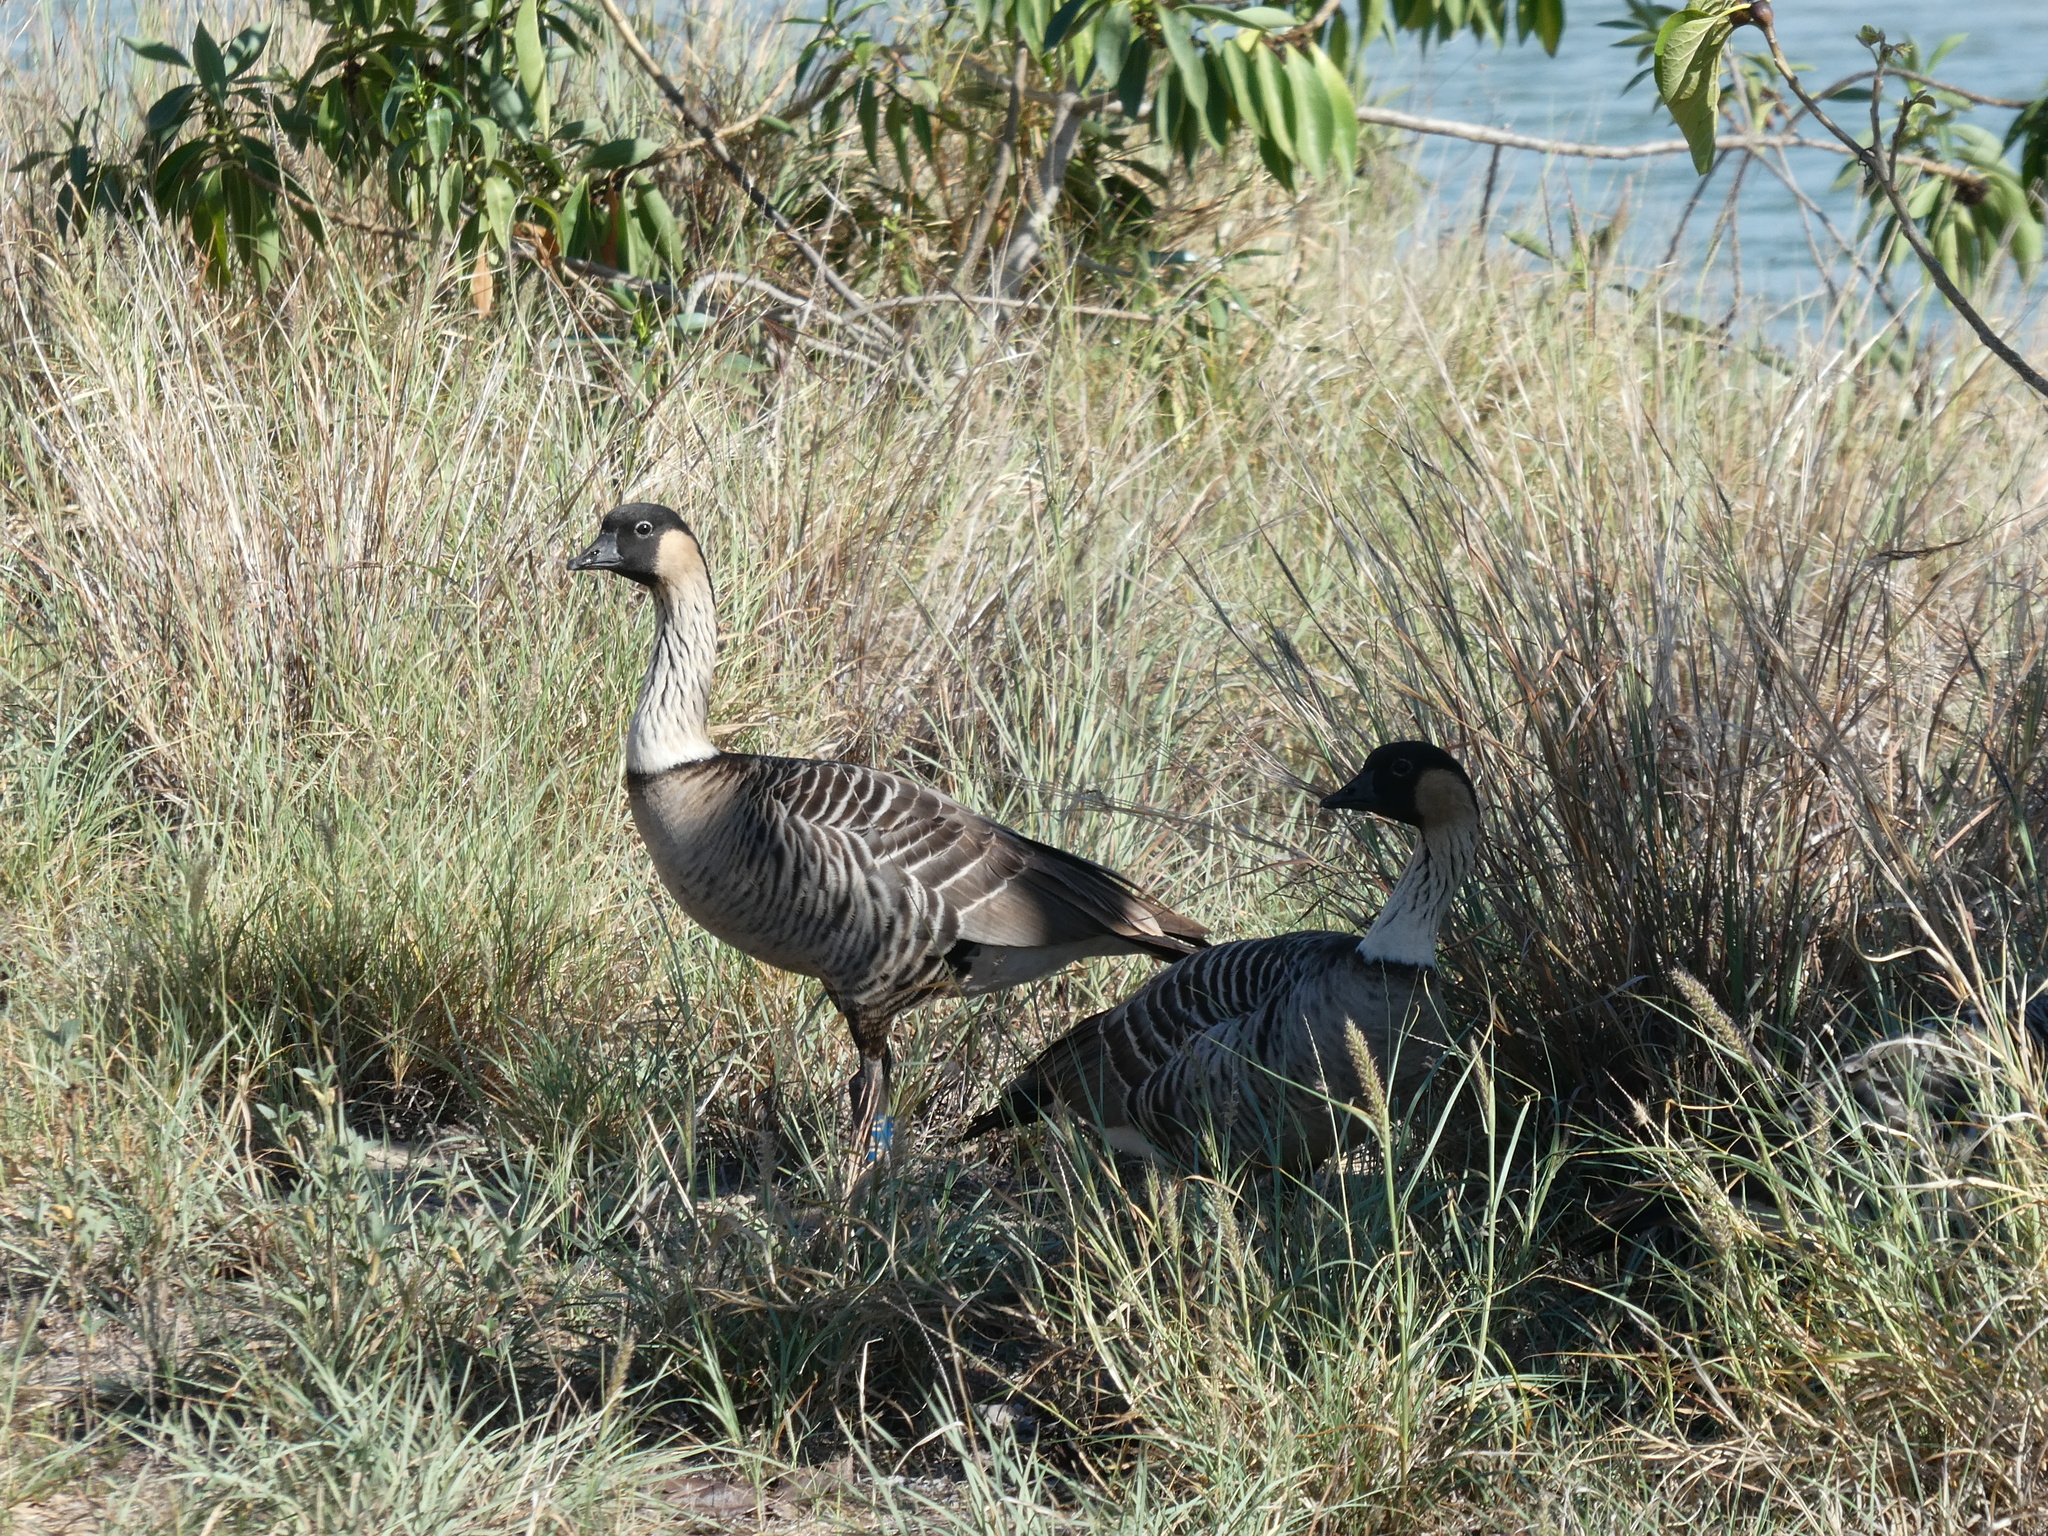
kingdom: Animalia
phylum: Chordata
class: Aves
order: Anseriformes
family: Anatidae
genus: Branta
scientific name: Branta sandvicensis
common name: Nene
